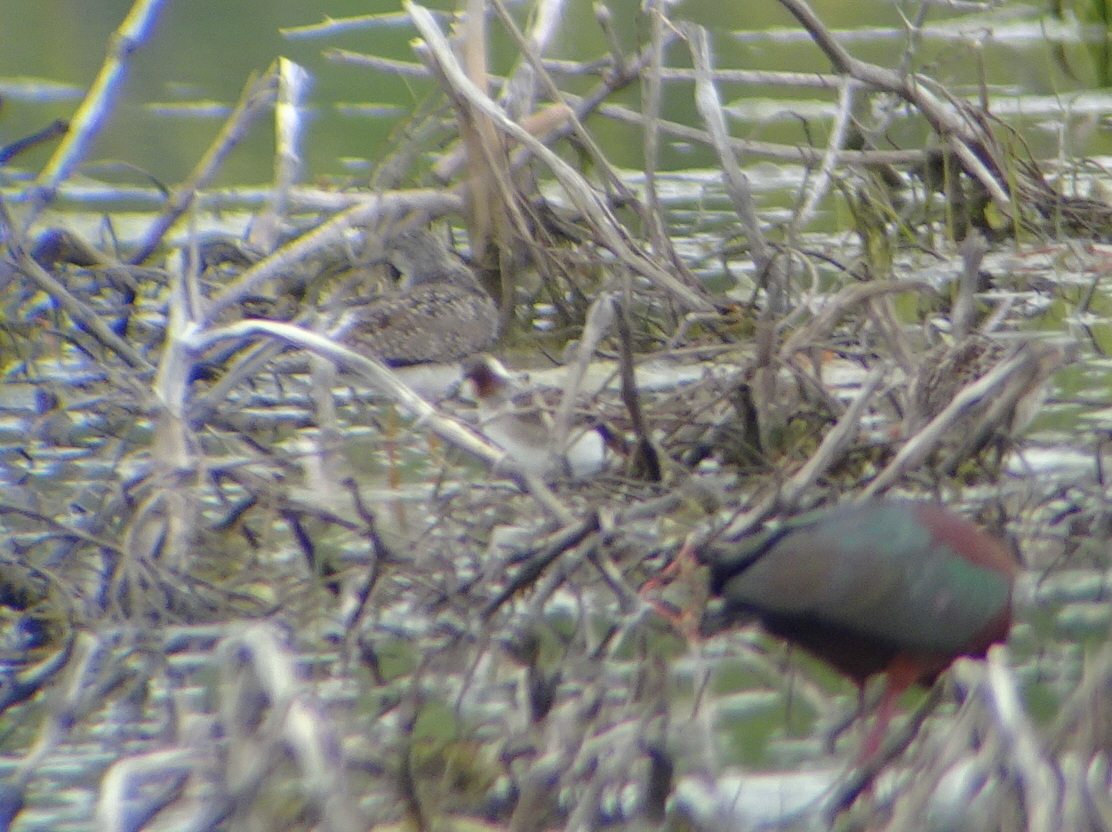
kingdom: Animalia
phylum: Chordata
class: Aves
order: Charadriiformes
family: Scolopacidae
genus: Phalaropus
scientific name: Phalaropus tricolor
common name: Wilson's phalarope
